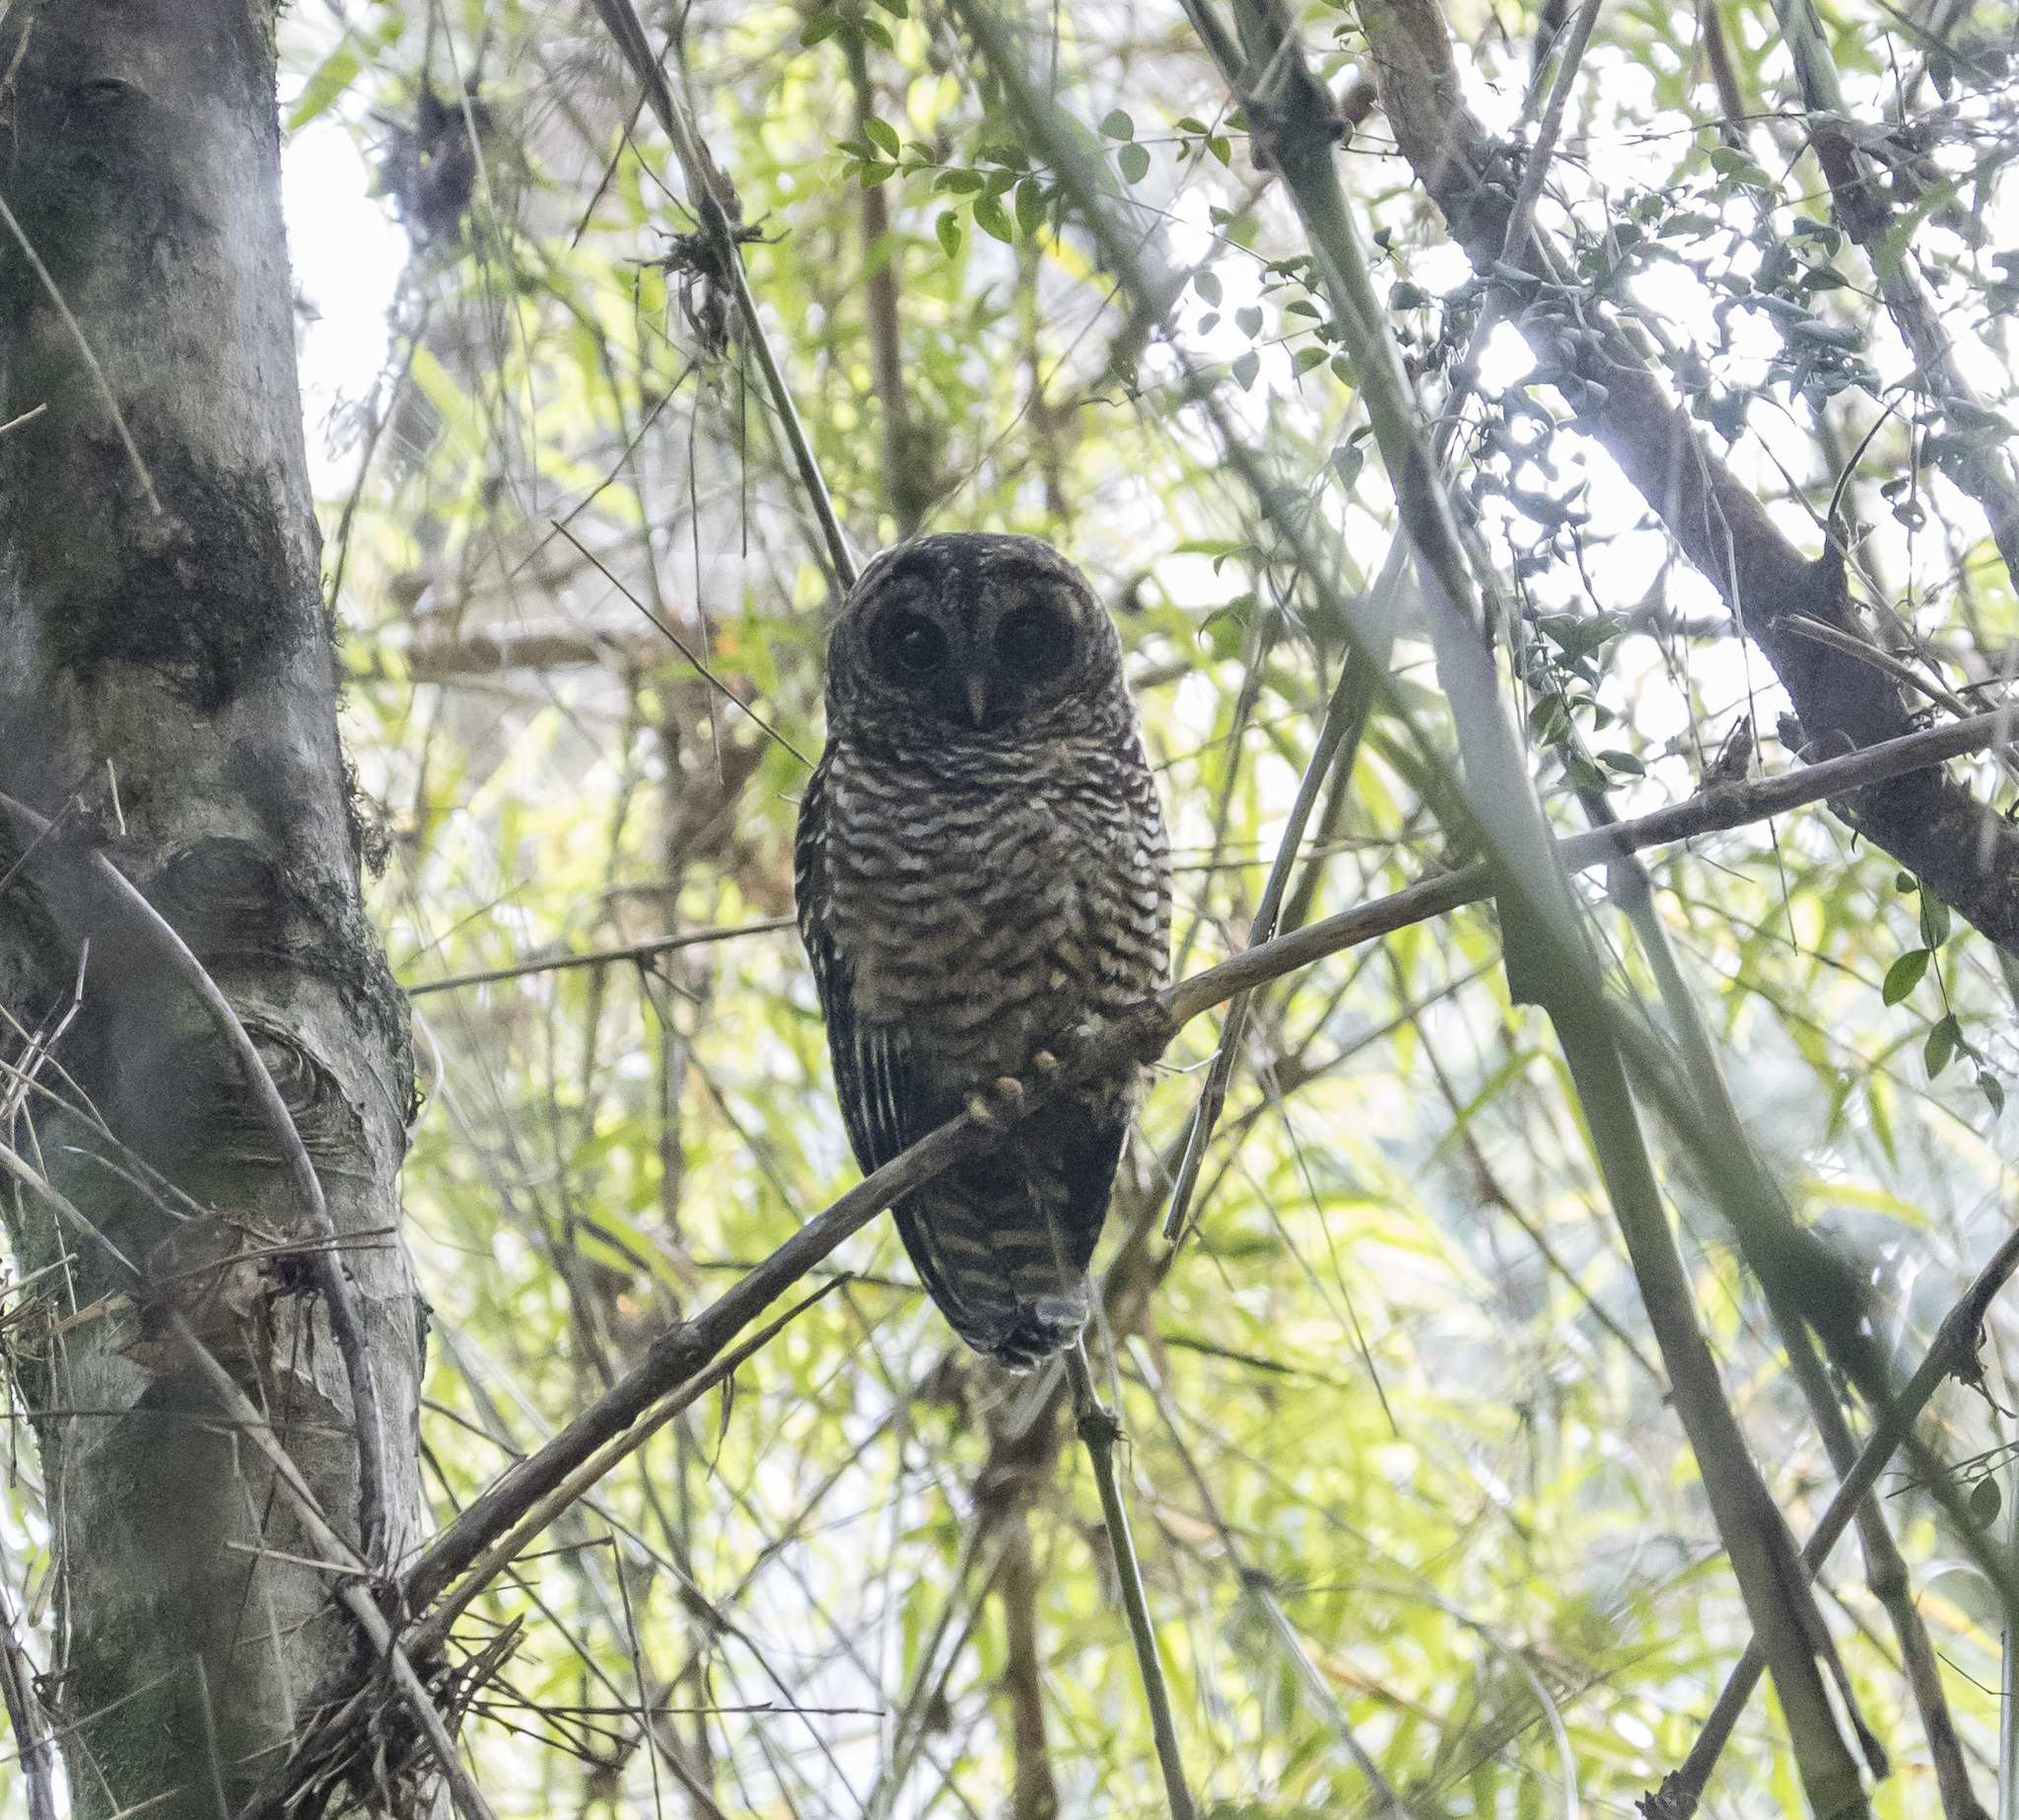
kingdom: Animalia
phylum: Chordata
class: Aves
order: Strigiformes
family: Strigidae
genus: Strix
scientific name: Strix rufipes
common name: Rufous-legged owl
